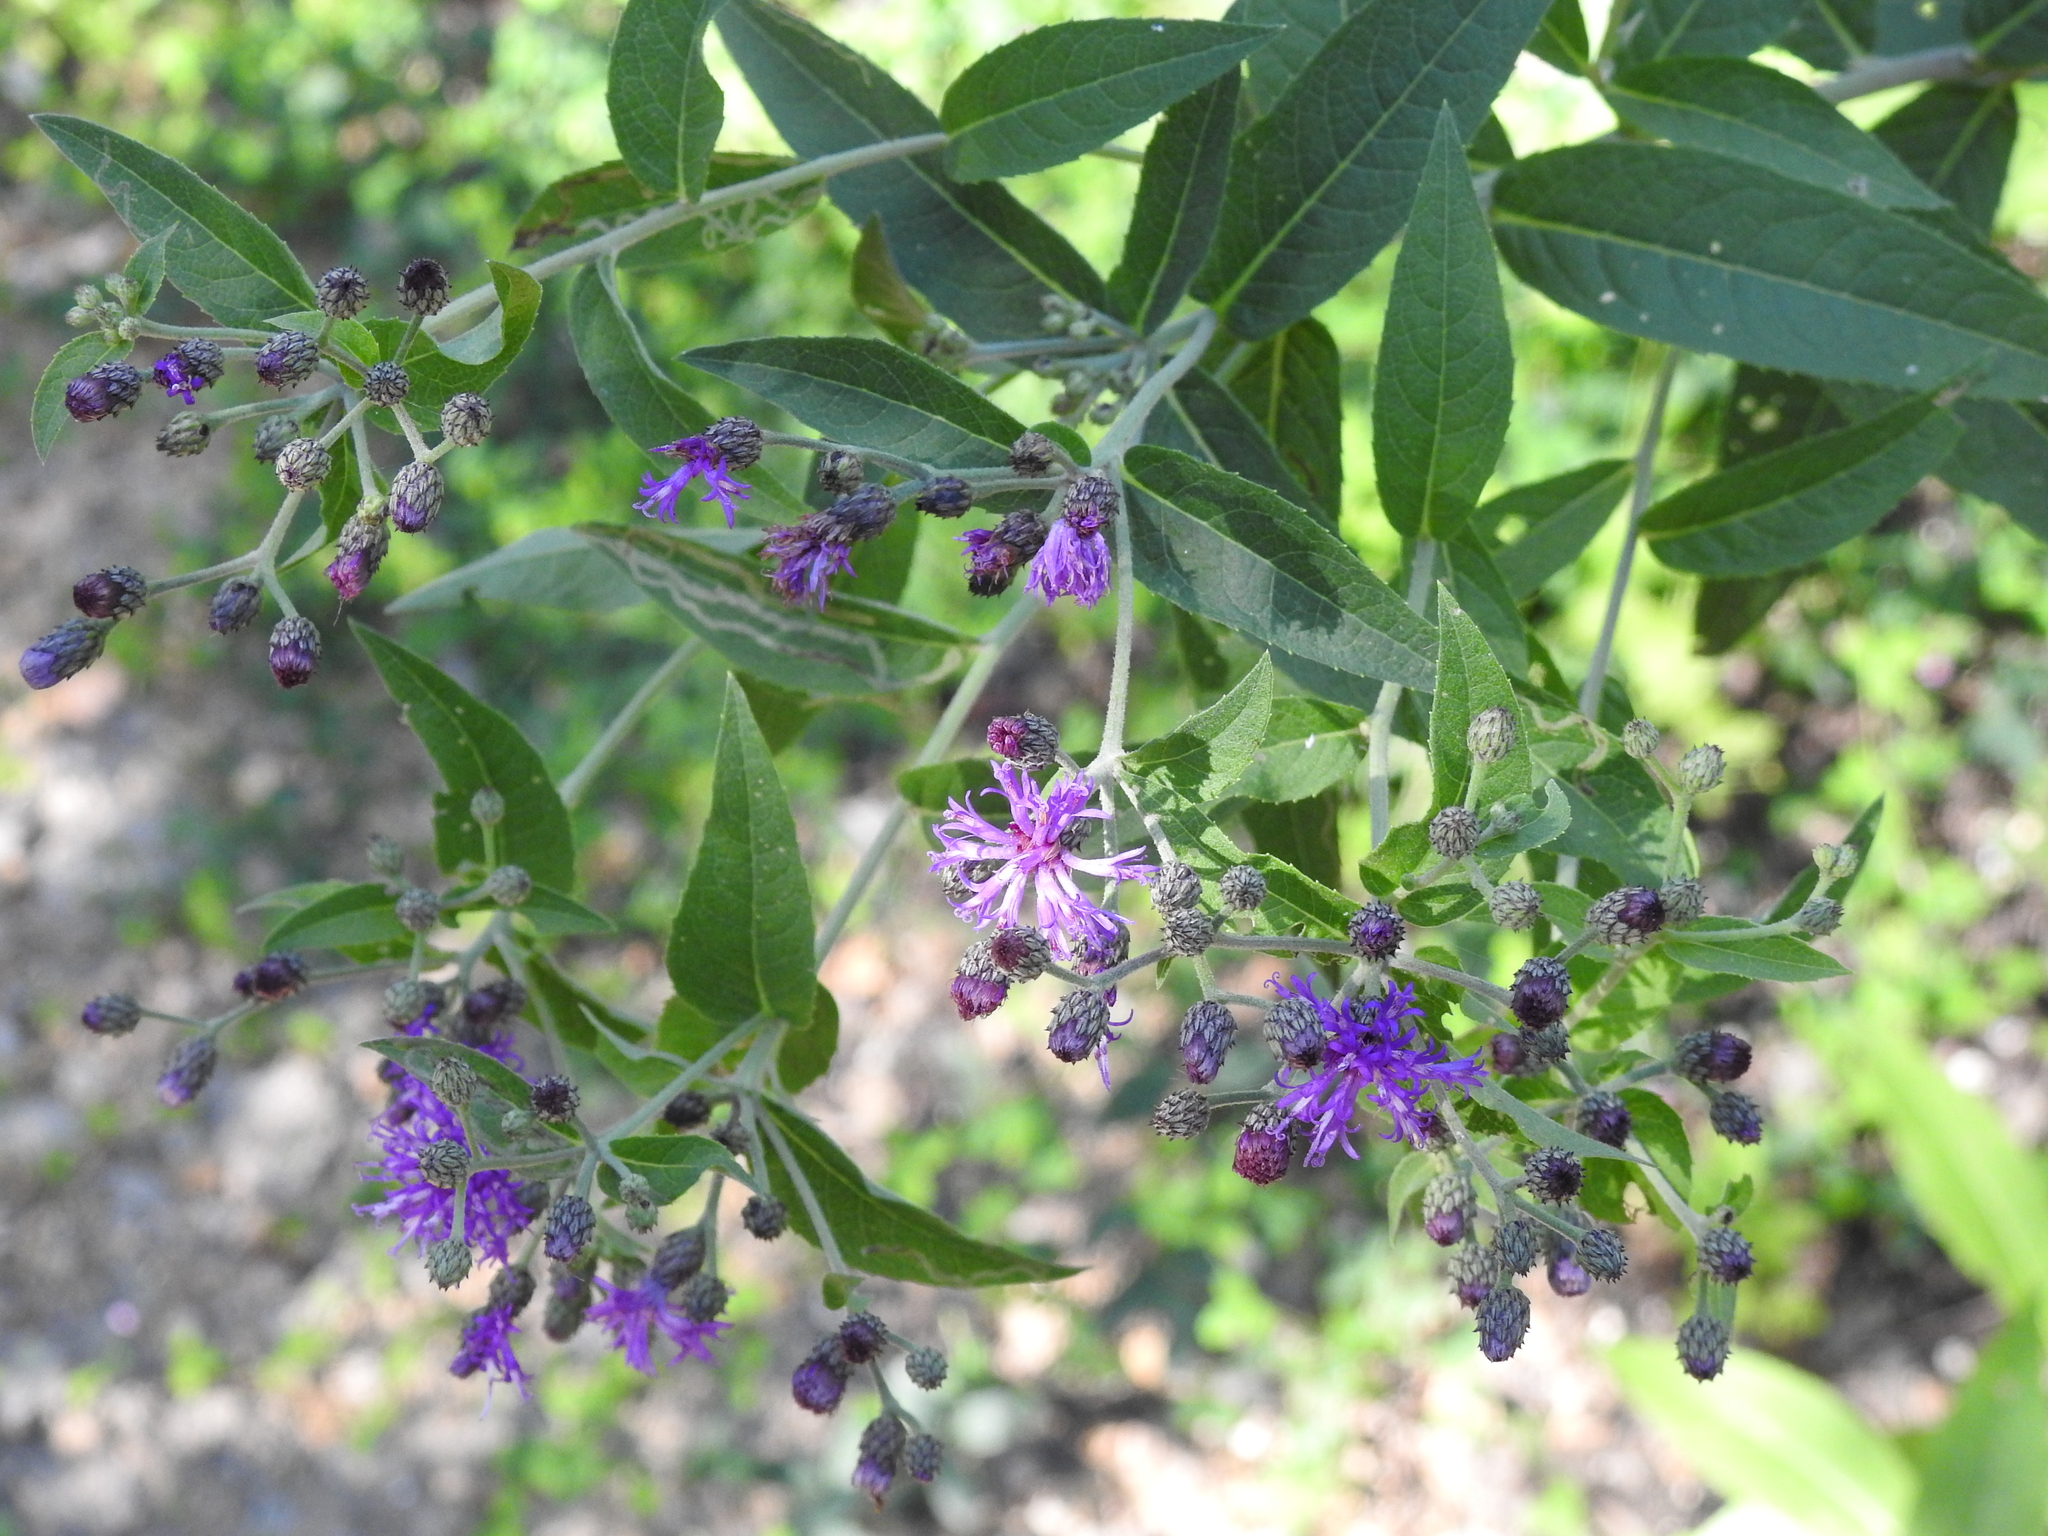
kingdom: Plantae
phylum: Tracheophyta
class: Magnoliopsida
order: Asterales
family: Asteraceae
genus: Vernonia
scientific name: Vernonia baldwinii
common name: Western ironweed
